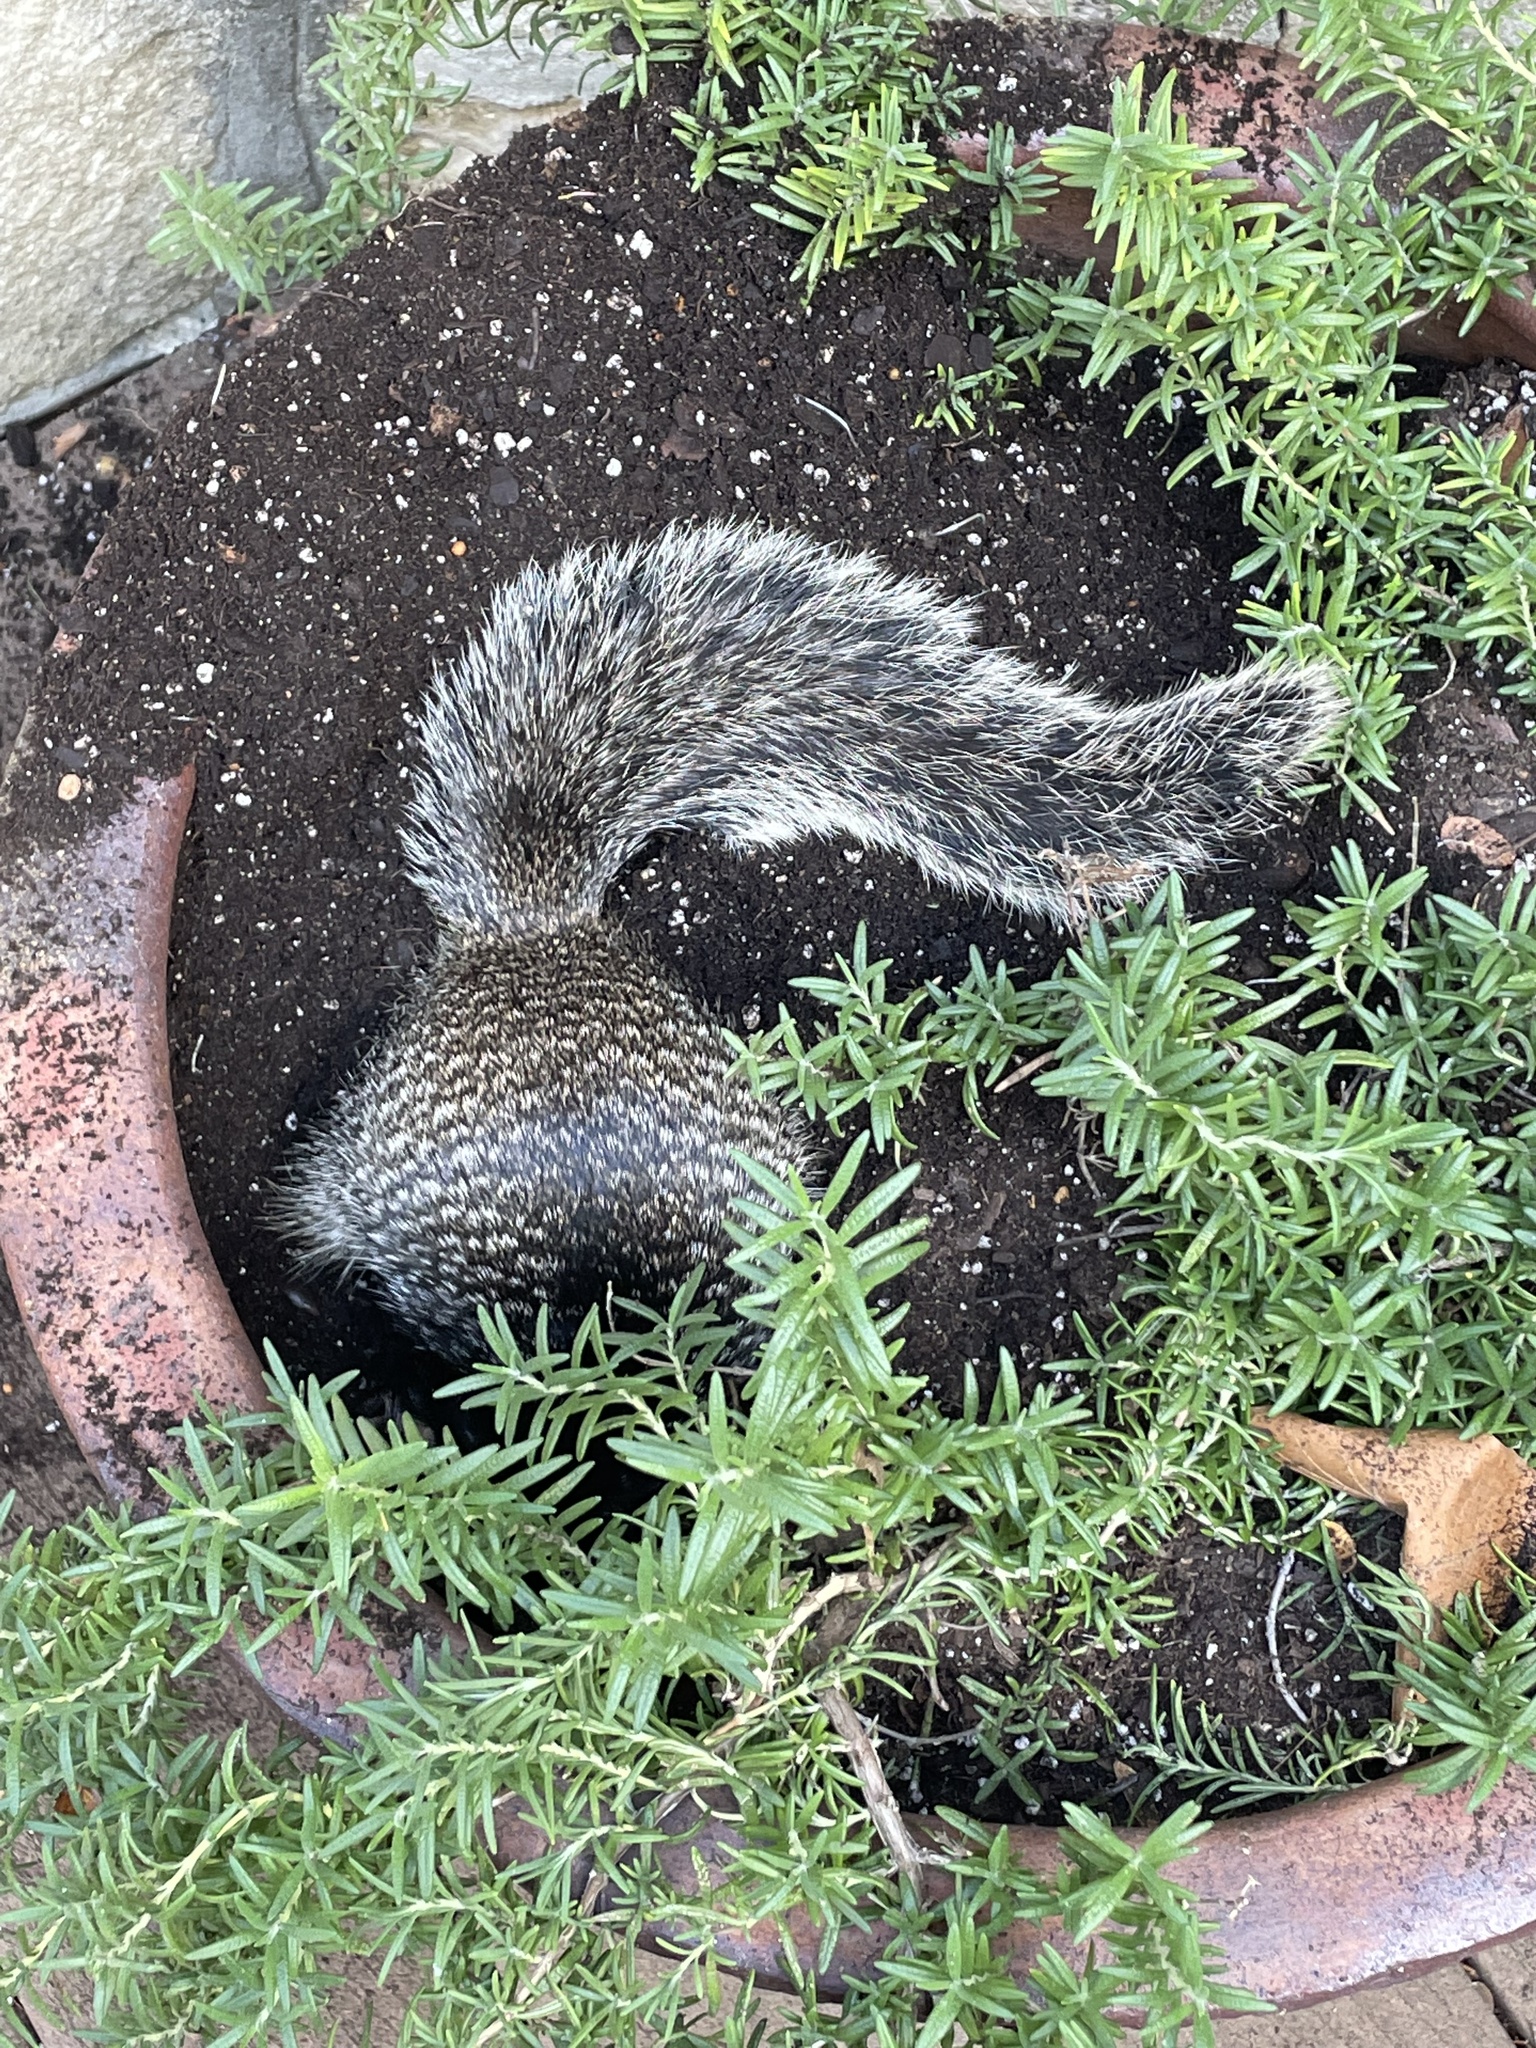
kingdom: Animalia
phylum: Chordata
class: Mammalia
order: Rodentia
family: Sciuridae
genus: Otospermophilus
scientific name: Otospermophilus variegatus
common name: Rock squirrel
